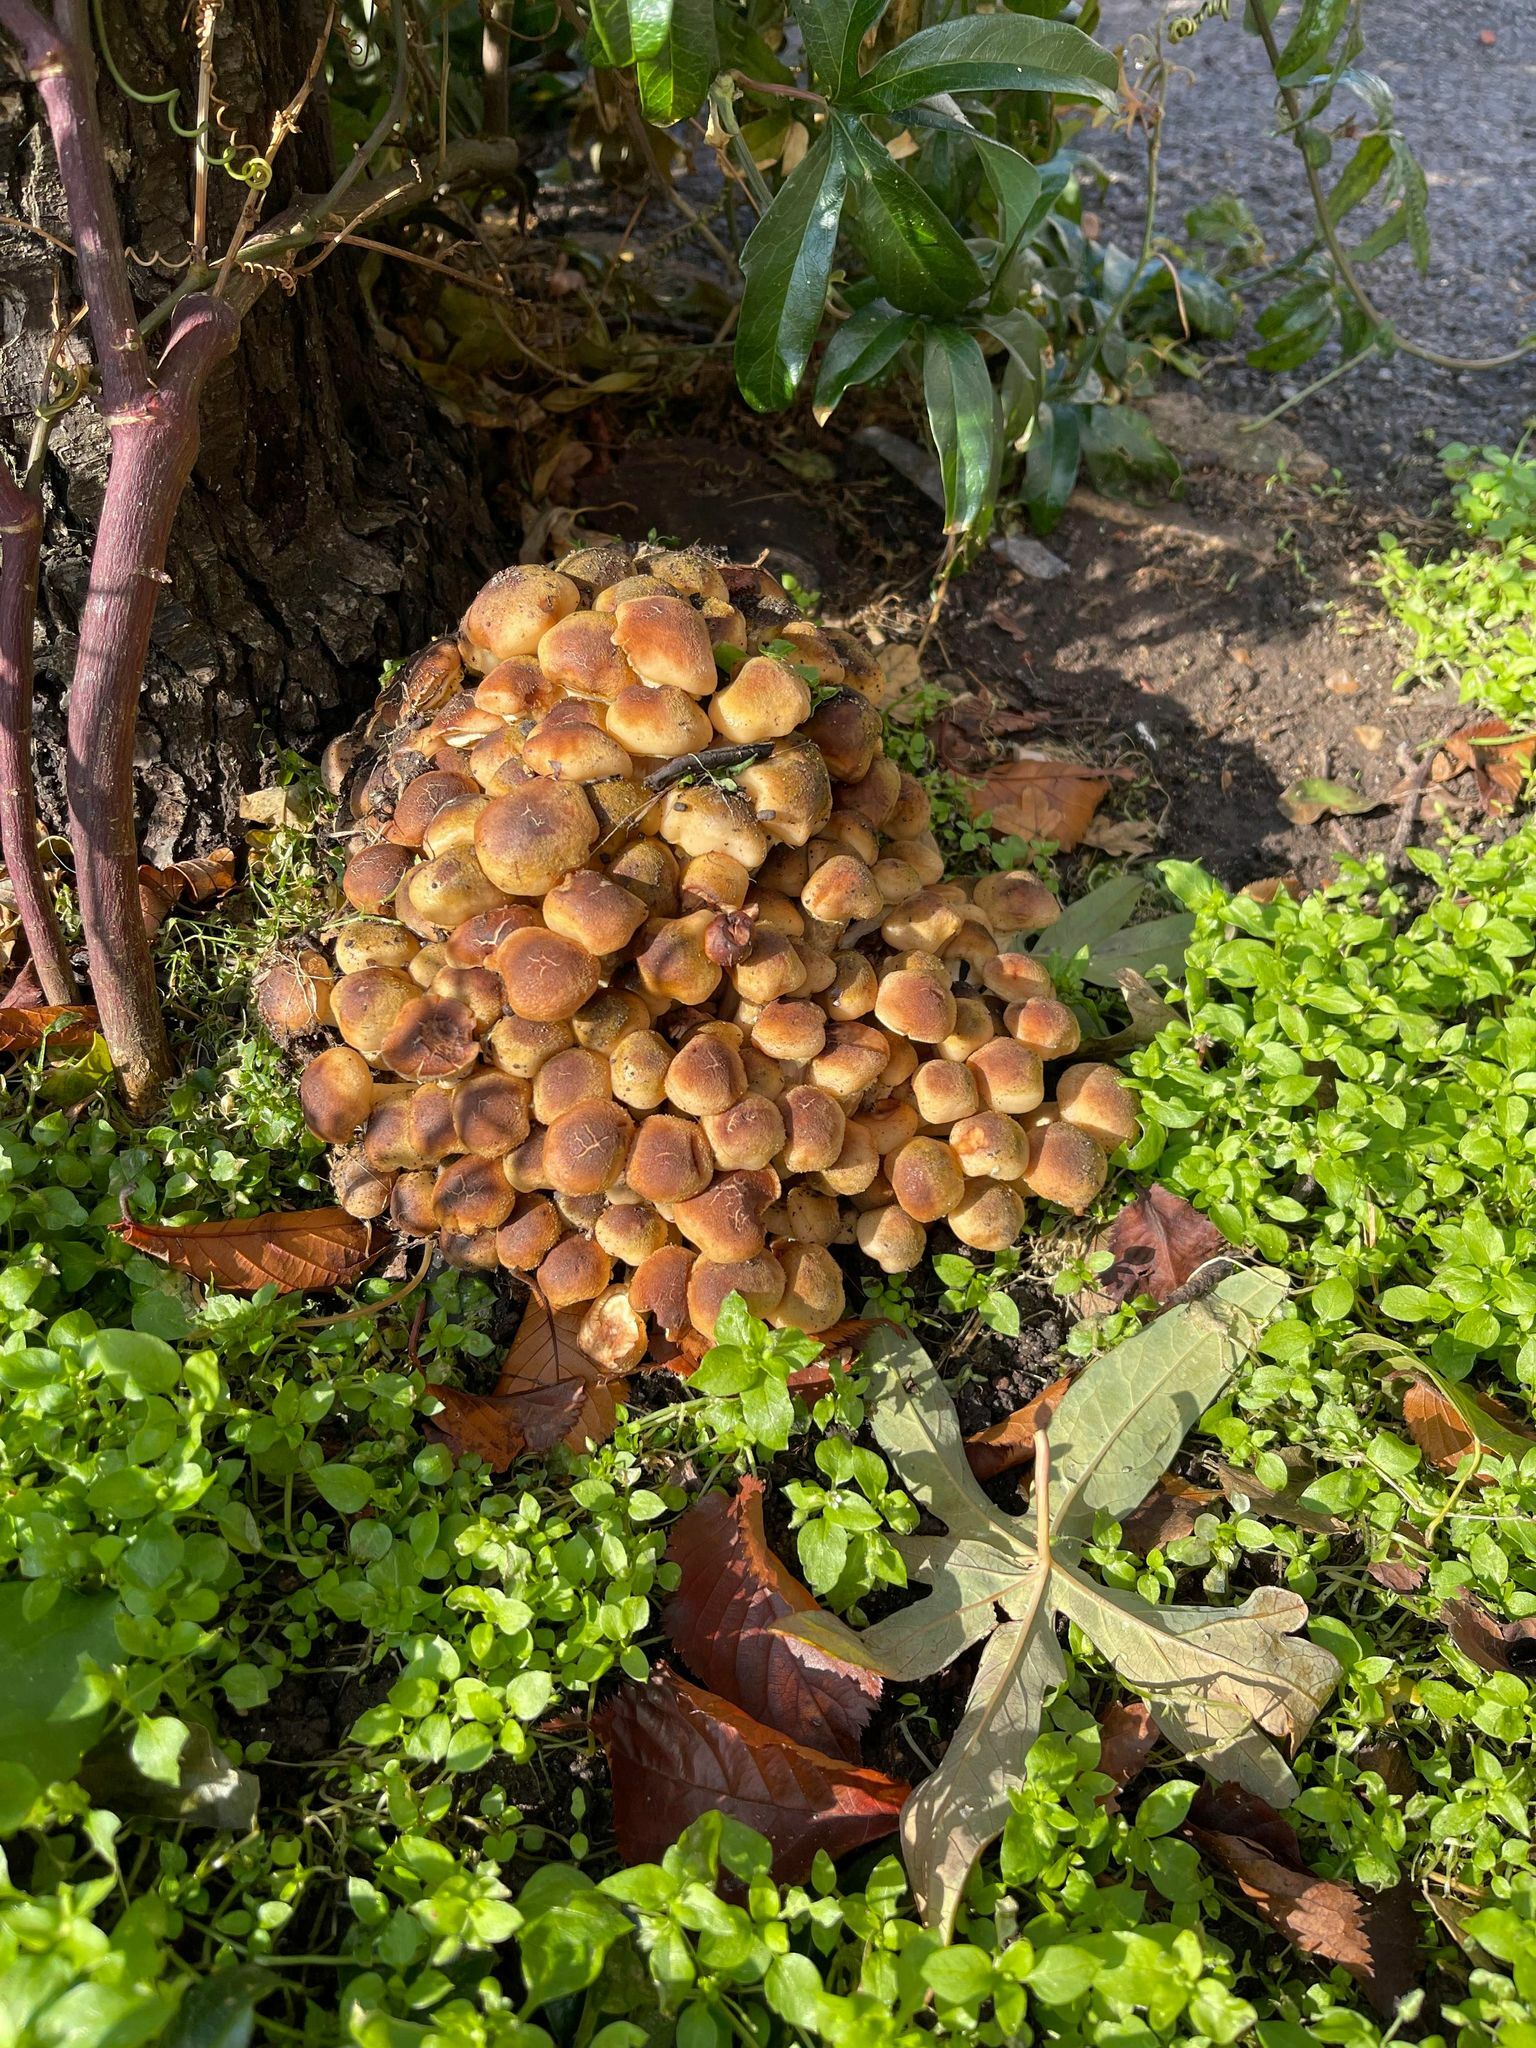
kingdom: Fungi
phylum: Basidiomycota
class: Agaricomycetes
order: Agaricales
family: Physalacriaceae
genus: Armillaria
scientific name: Armillaria mellea
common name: Honey fungus
